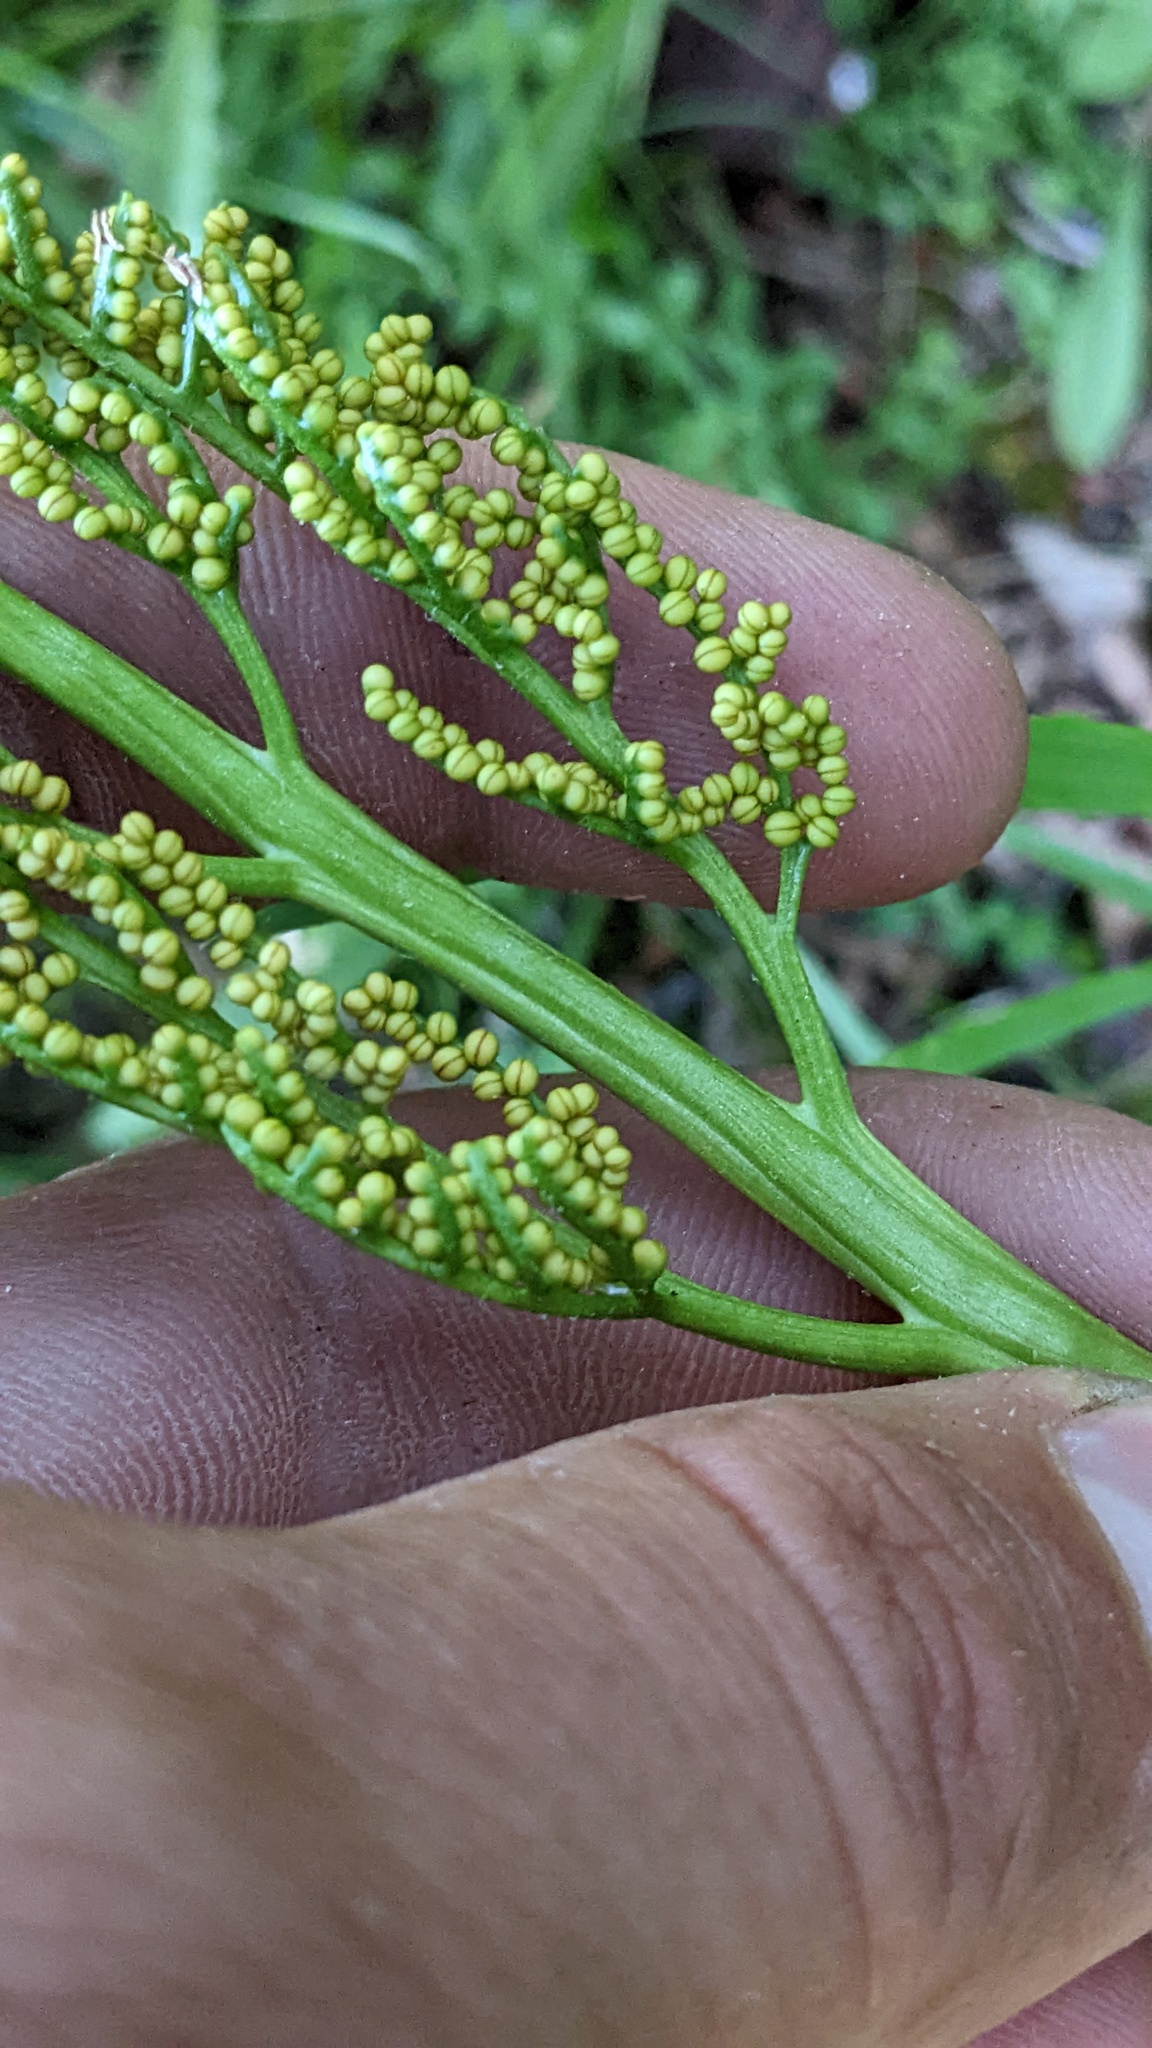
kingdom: Plantae
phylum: Tracheophyta
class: Polypodiopsida
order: Ophioglossales
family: Ophioglossaceae
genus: Sceptridium
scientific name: Sceptridium multifidum
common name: Leathery grape fern
